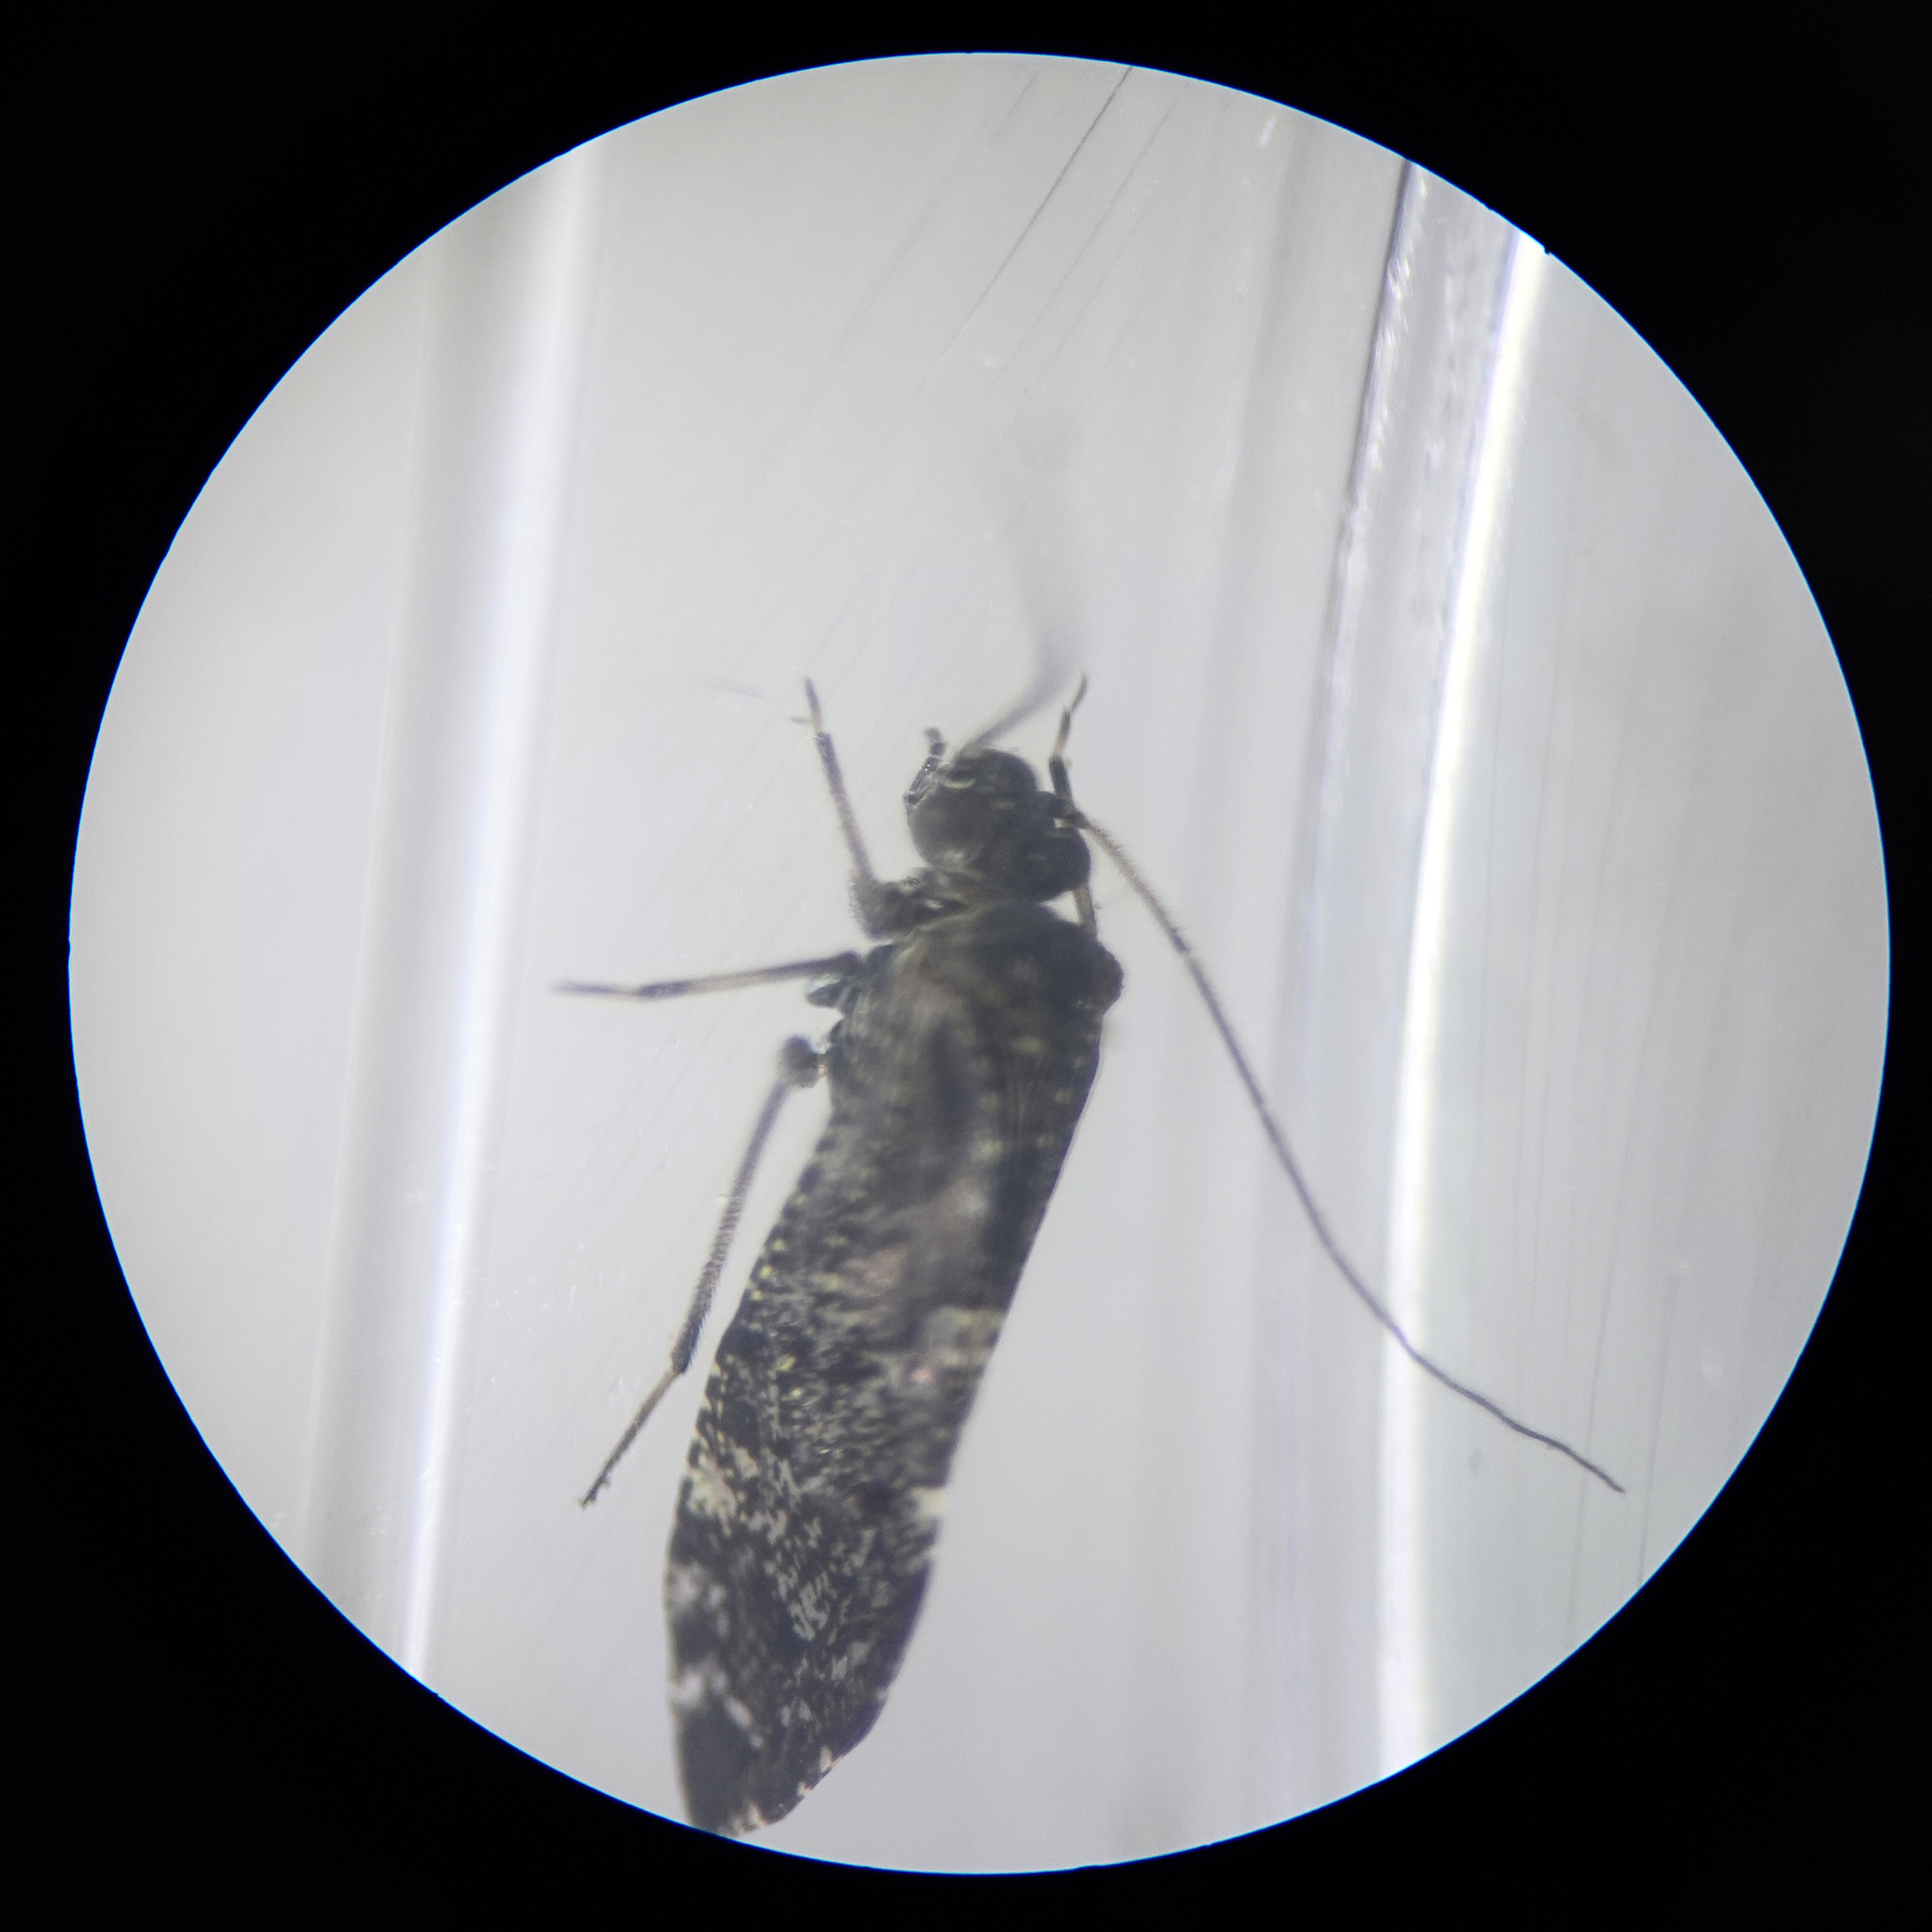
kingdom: Animalia
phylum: Arthropoda
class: Insecta
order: Psocodea
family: Myopsocidae
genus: Nimbopsocus
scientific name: Nimbopsocus australis
